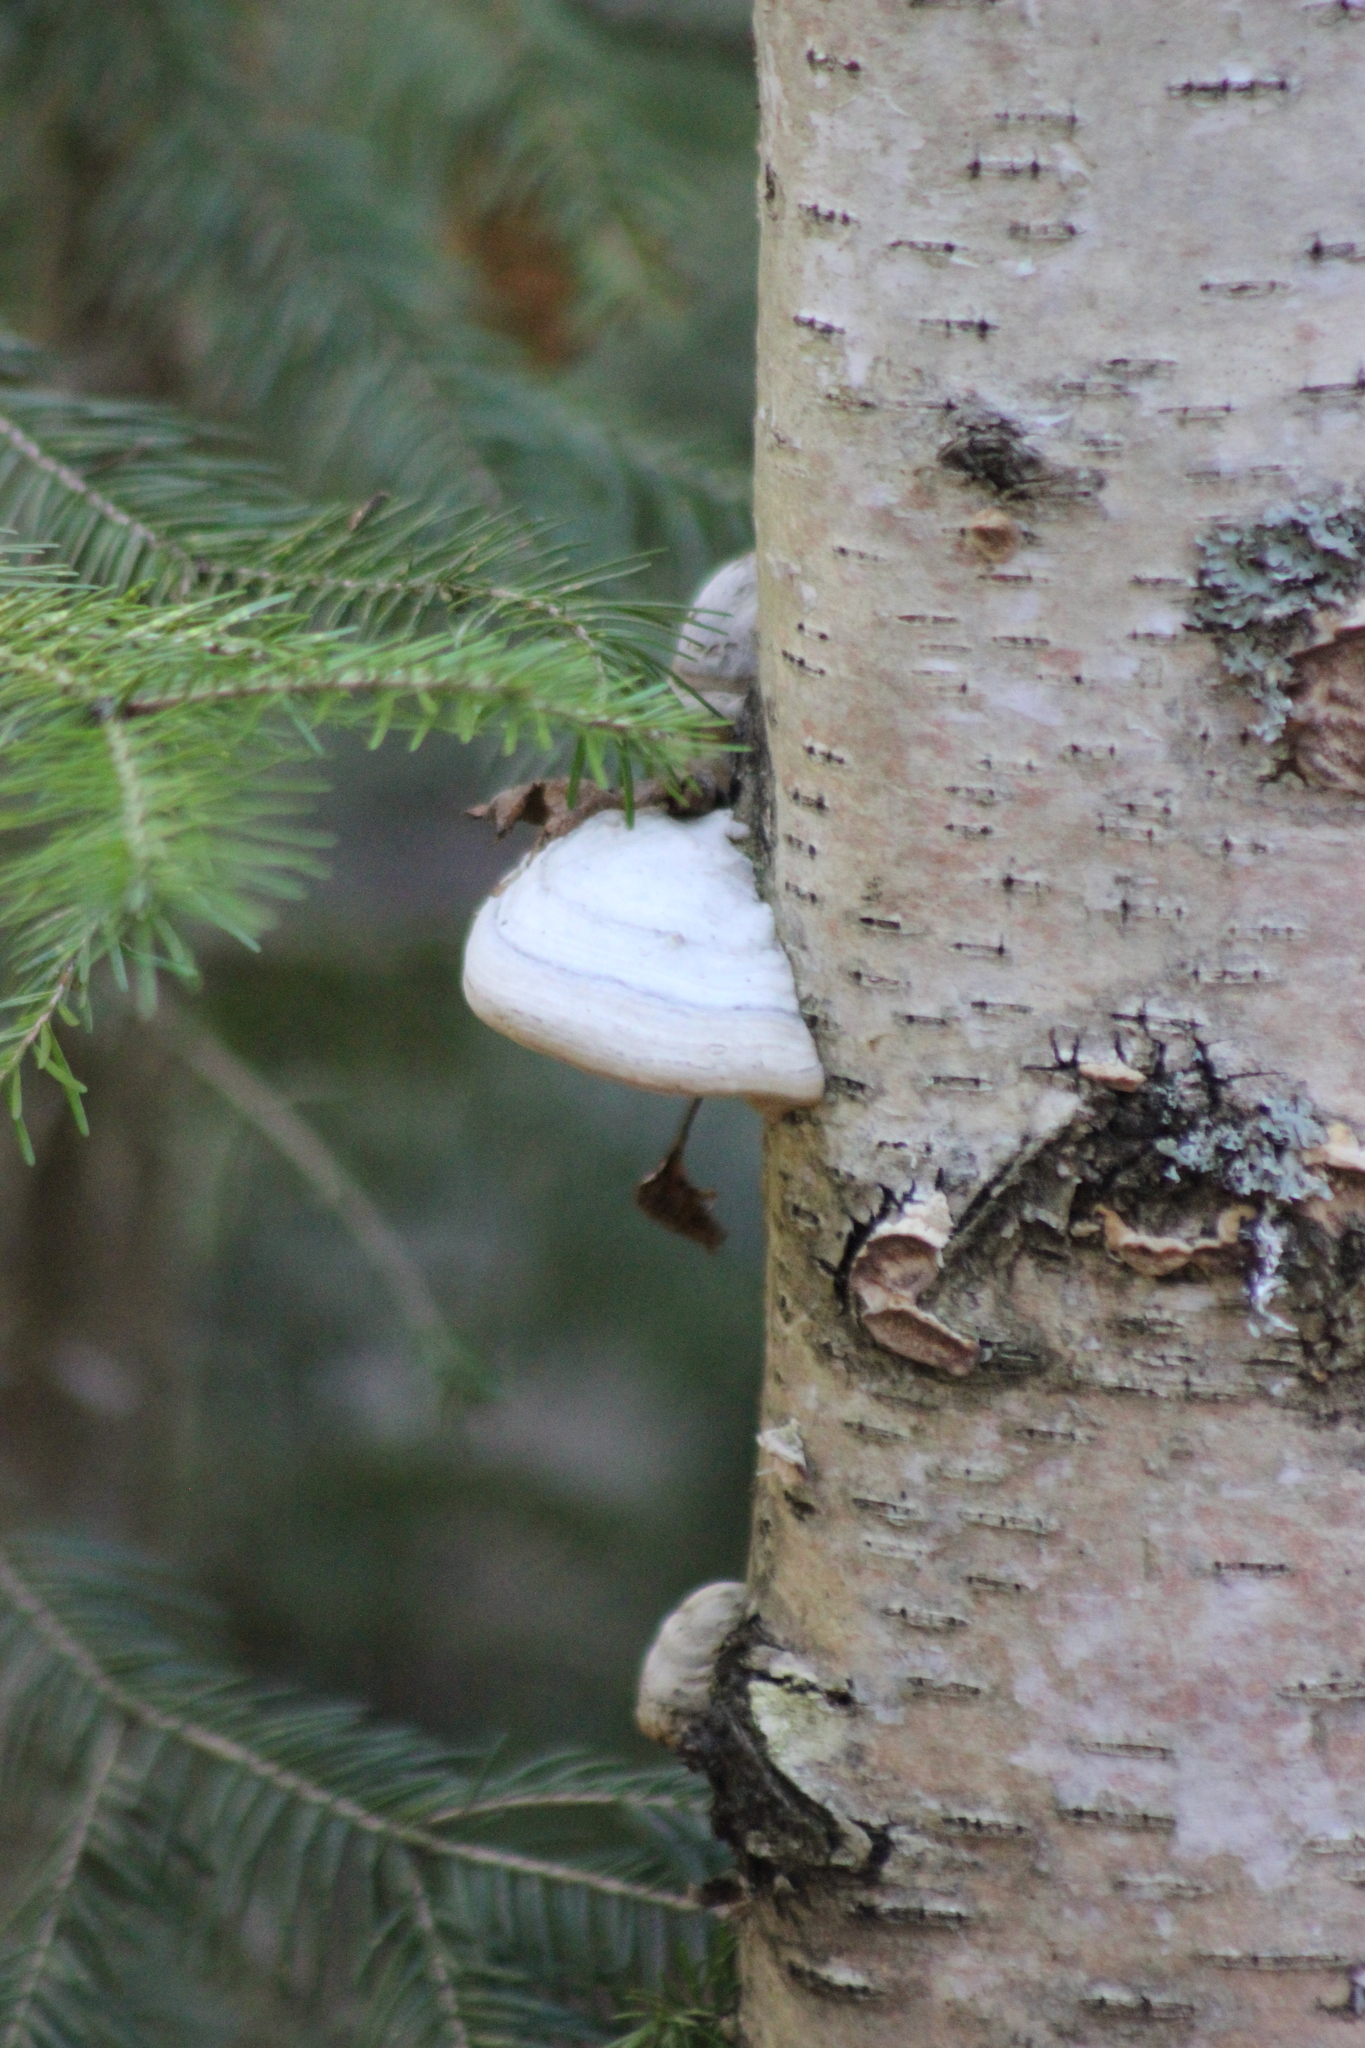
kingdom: Fungi
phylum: Basidiomycota
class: Agaricomycetes
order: Polyporales
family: Polyporaceae
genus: Fomes
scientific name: Fomes fomentarius
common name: Hoof fungus
